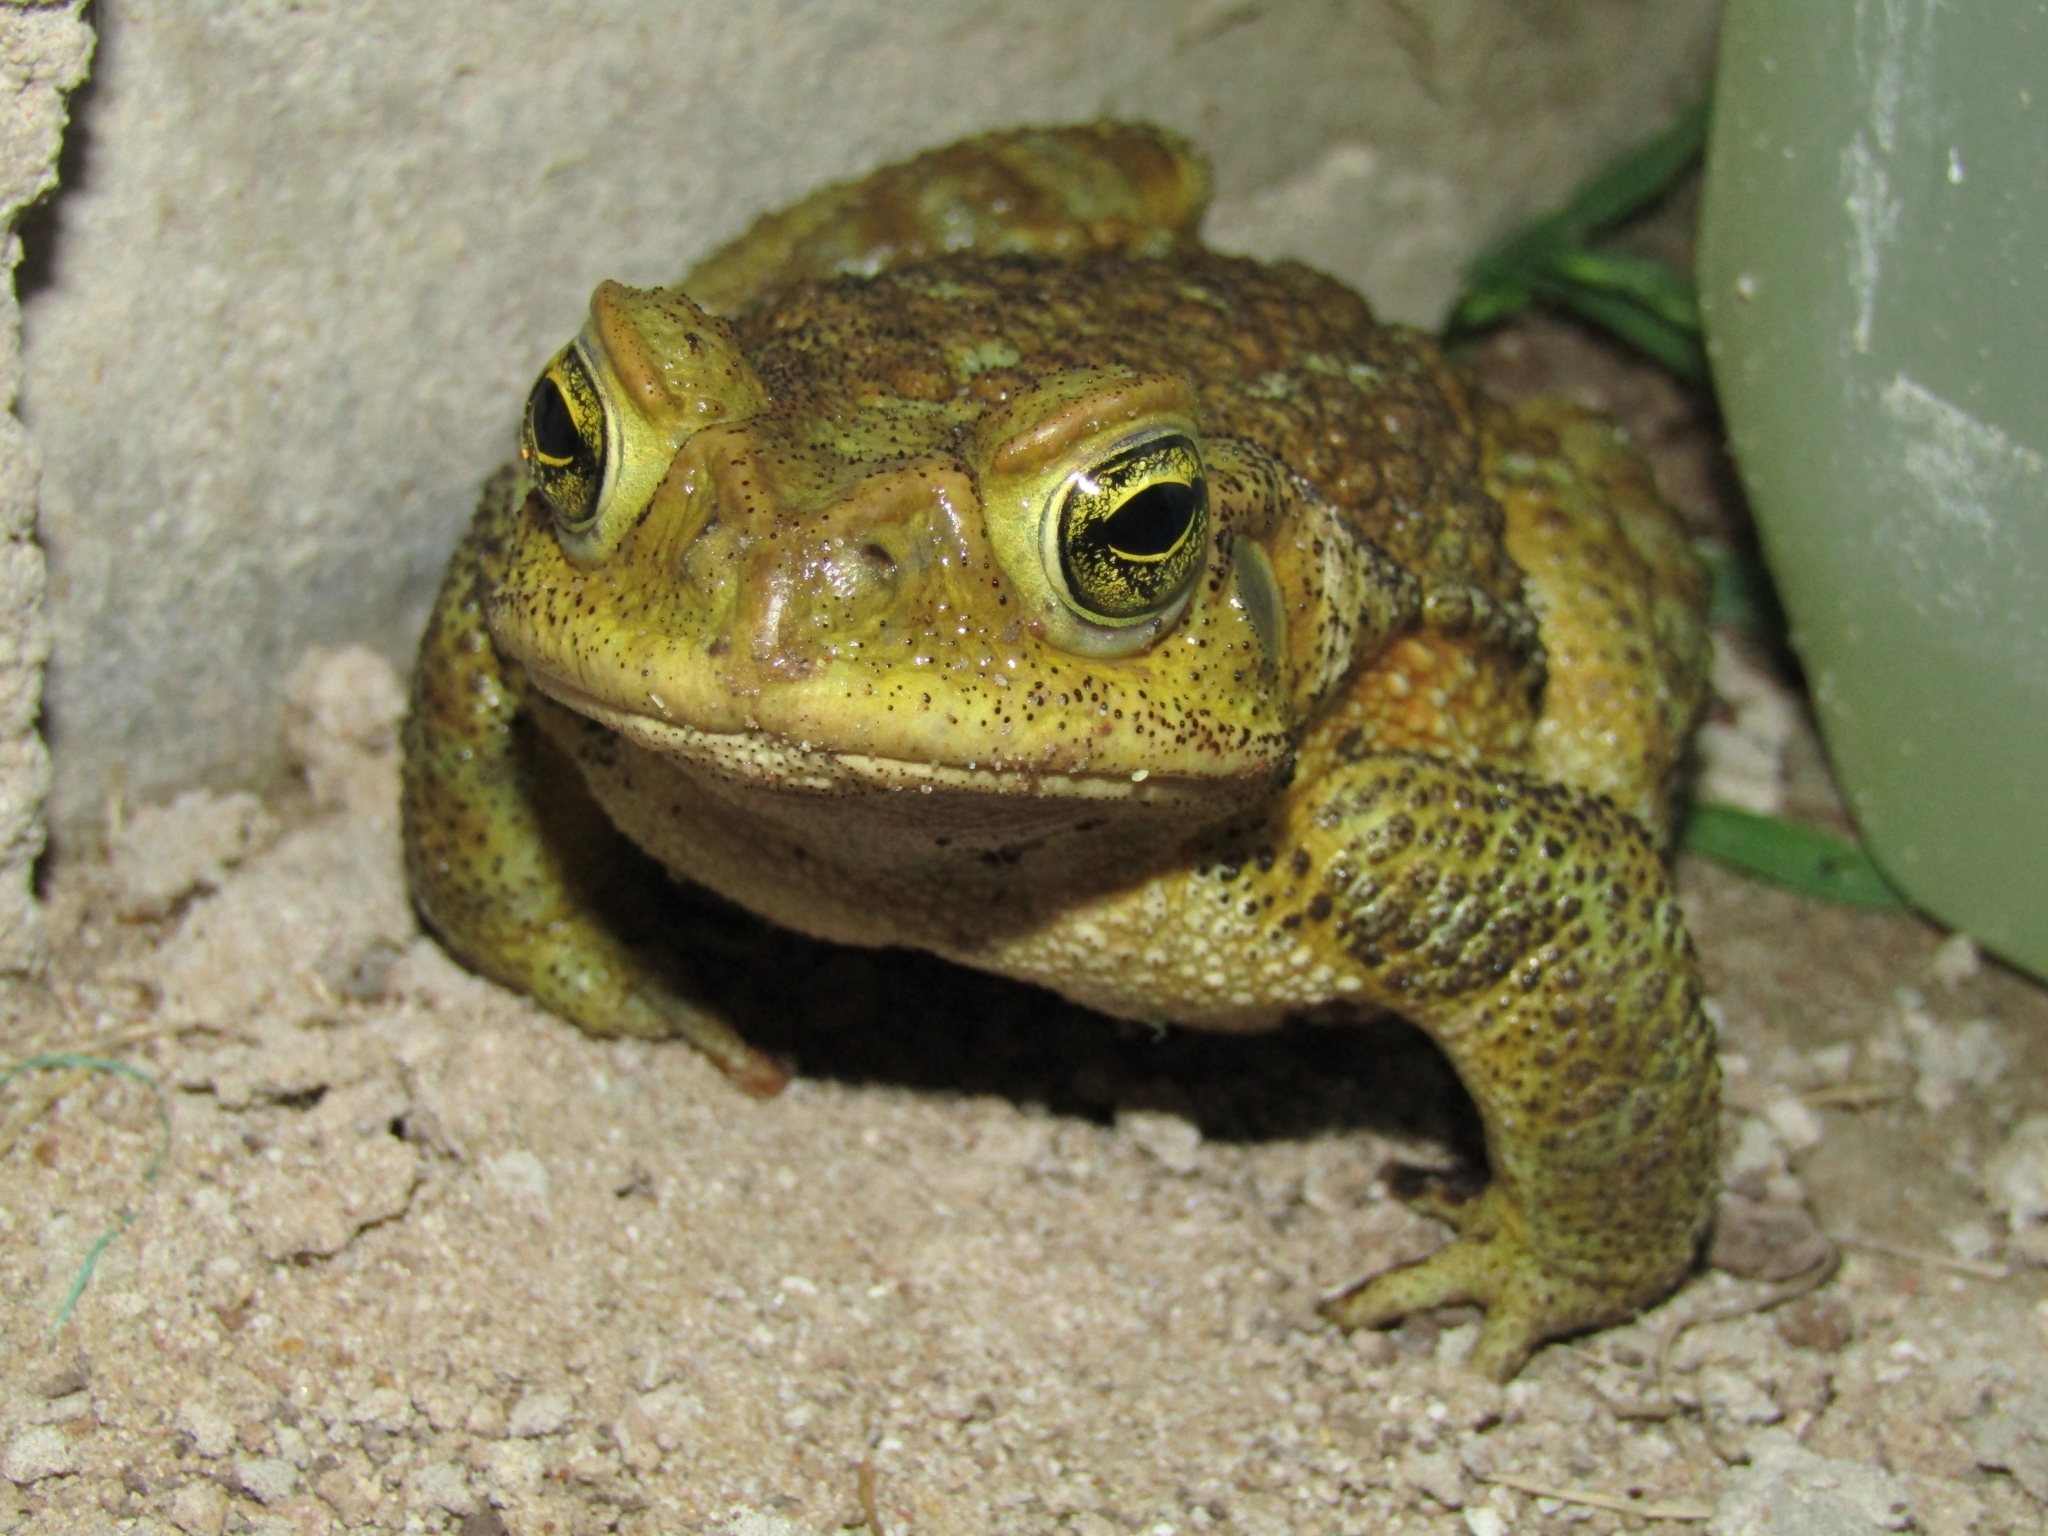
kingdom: Animalia
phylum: Chordata
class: Amphibia
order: Anura
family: Bufonidae
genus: Rhinella
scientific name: Rhinella arenarum
